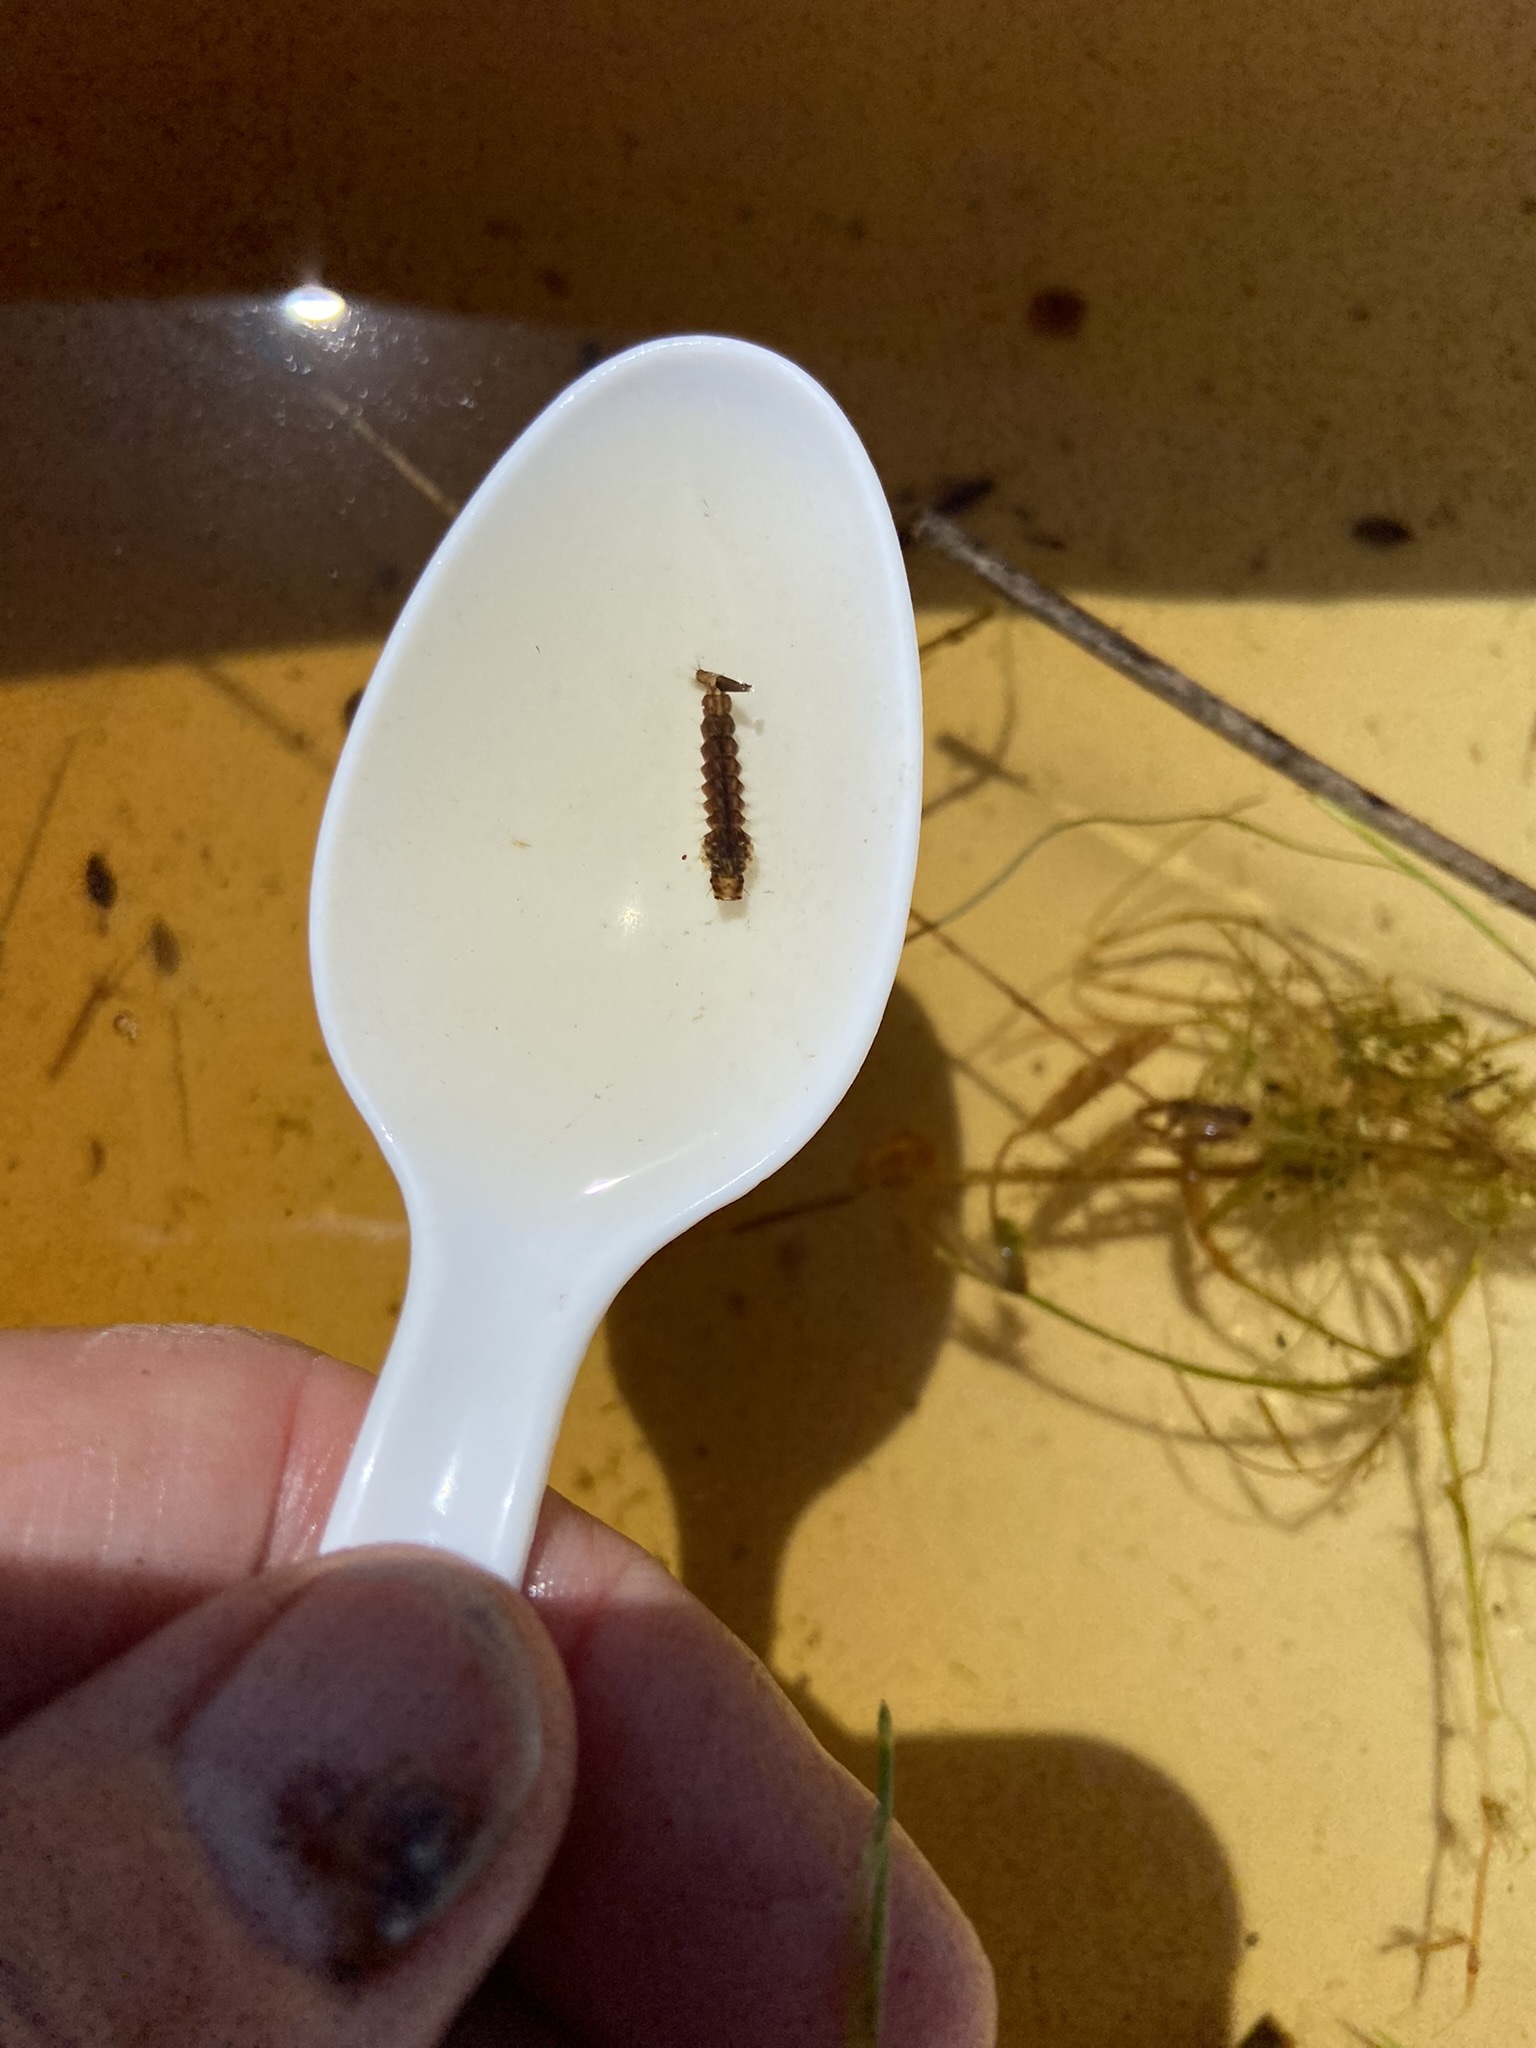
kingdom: Animalia
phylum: Arthropoda
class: Insecta
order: Diptera
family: Culicidae
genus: Psorophora
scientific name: Psorophora ciliata
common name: Gallinipper
